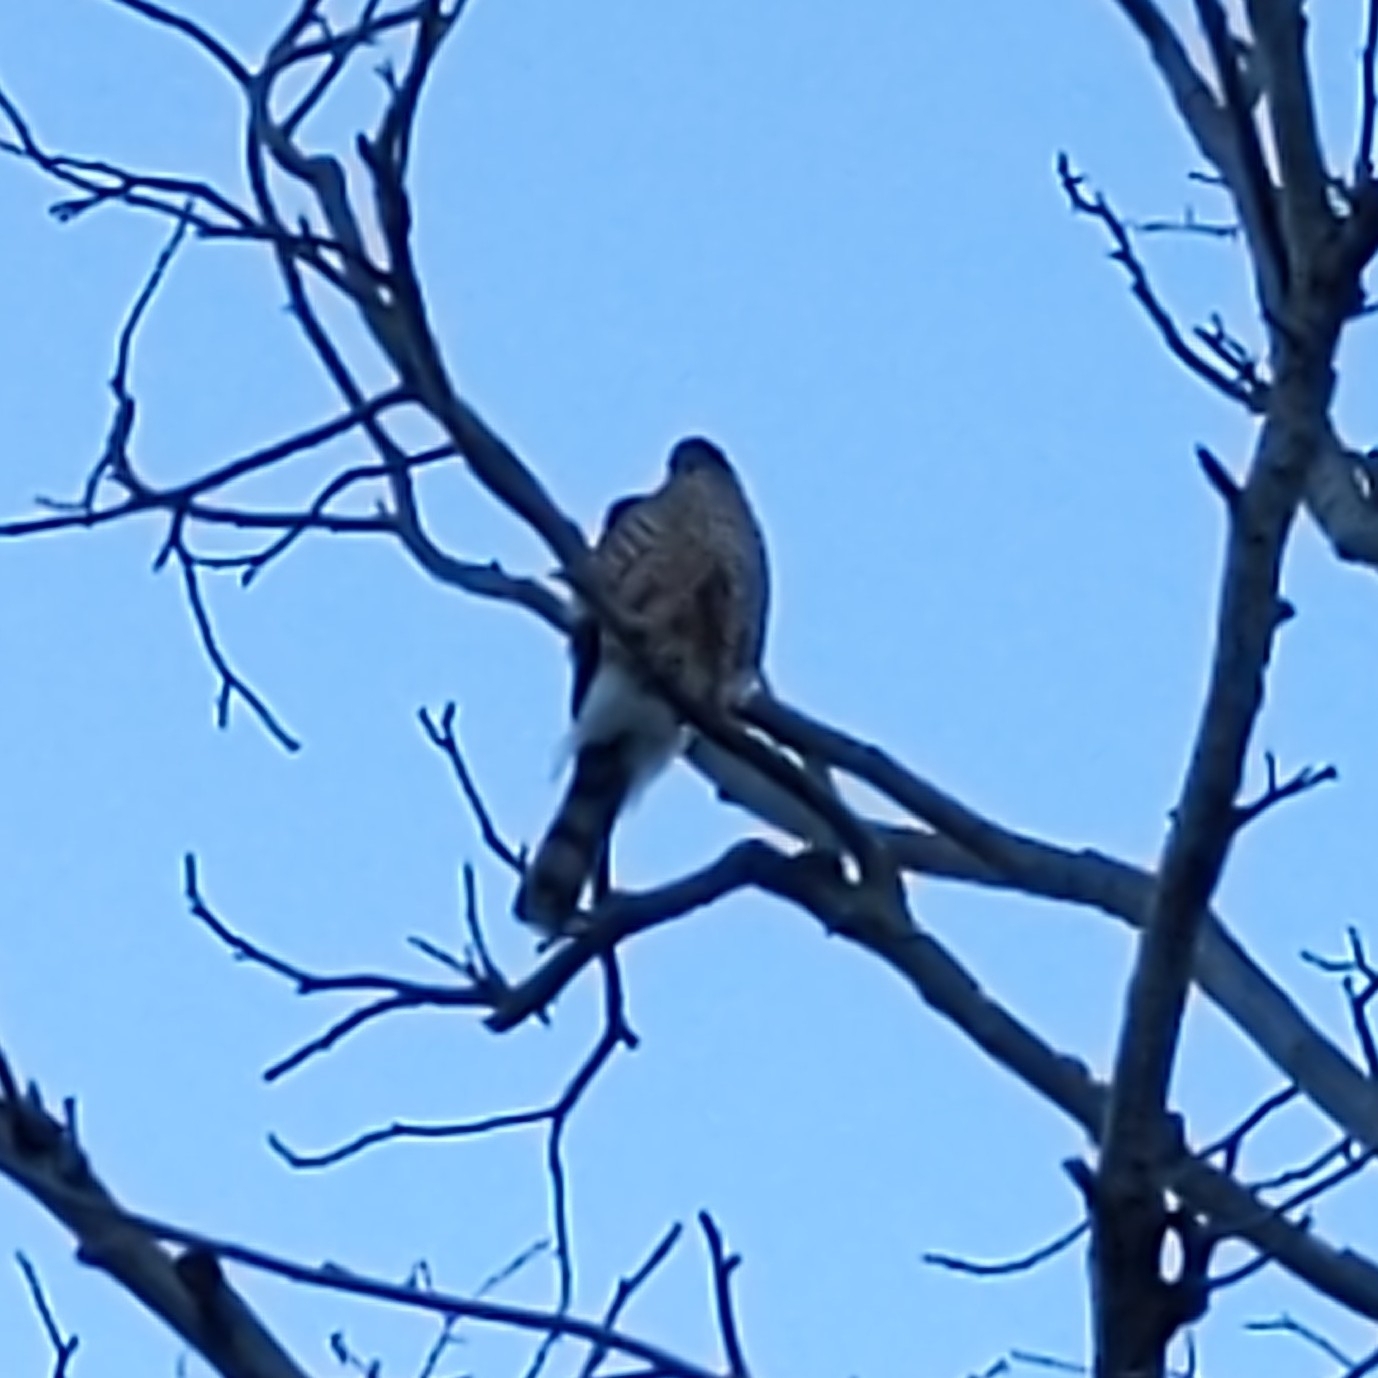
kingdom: Animalia
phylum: Chordata
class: Aves
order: Accipitriformes
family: Accipitridae
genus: Accipiter
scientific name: Accipiter striatus
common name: Sharp-shinned hawk
